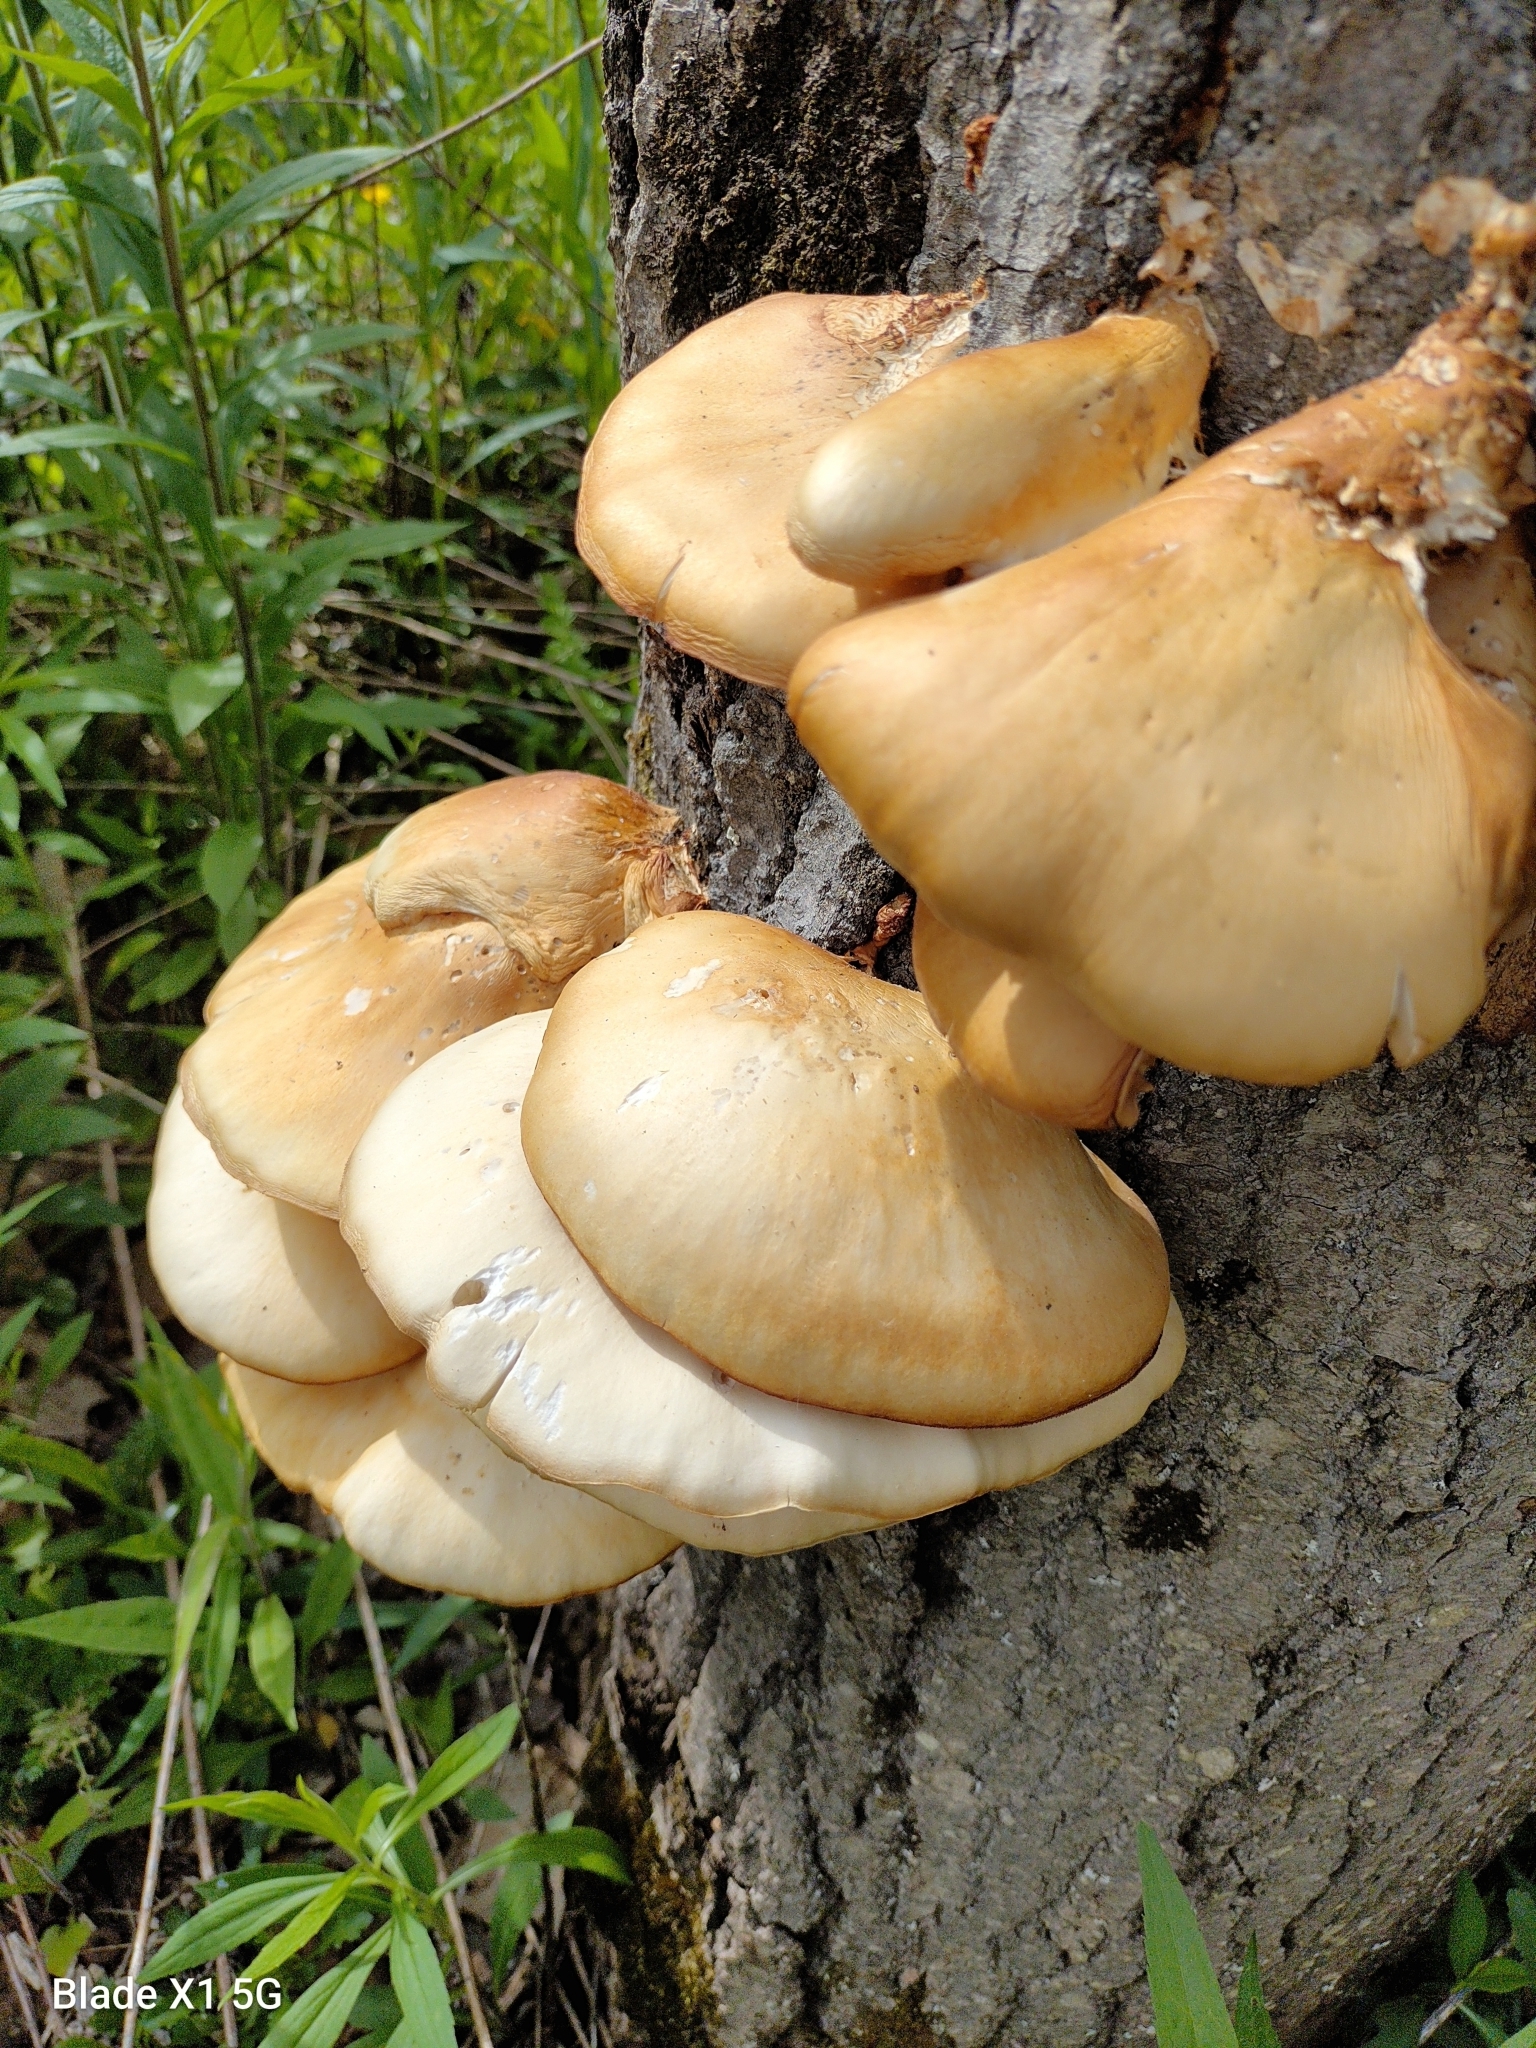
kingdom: Fungi
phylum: Basidiomycota
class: Agaricomycetes
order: Agaricales
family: Pleurotaceae
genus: Pleurotus
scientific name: Pleurotus populinus
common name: Aspen oyster mushroom
